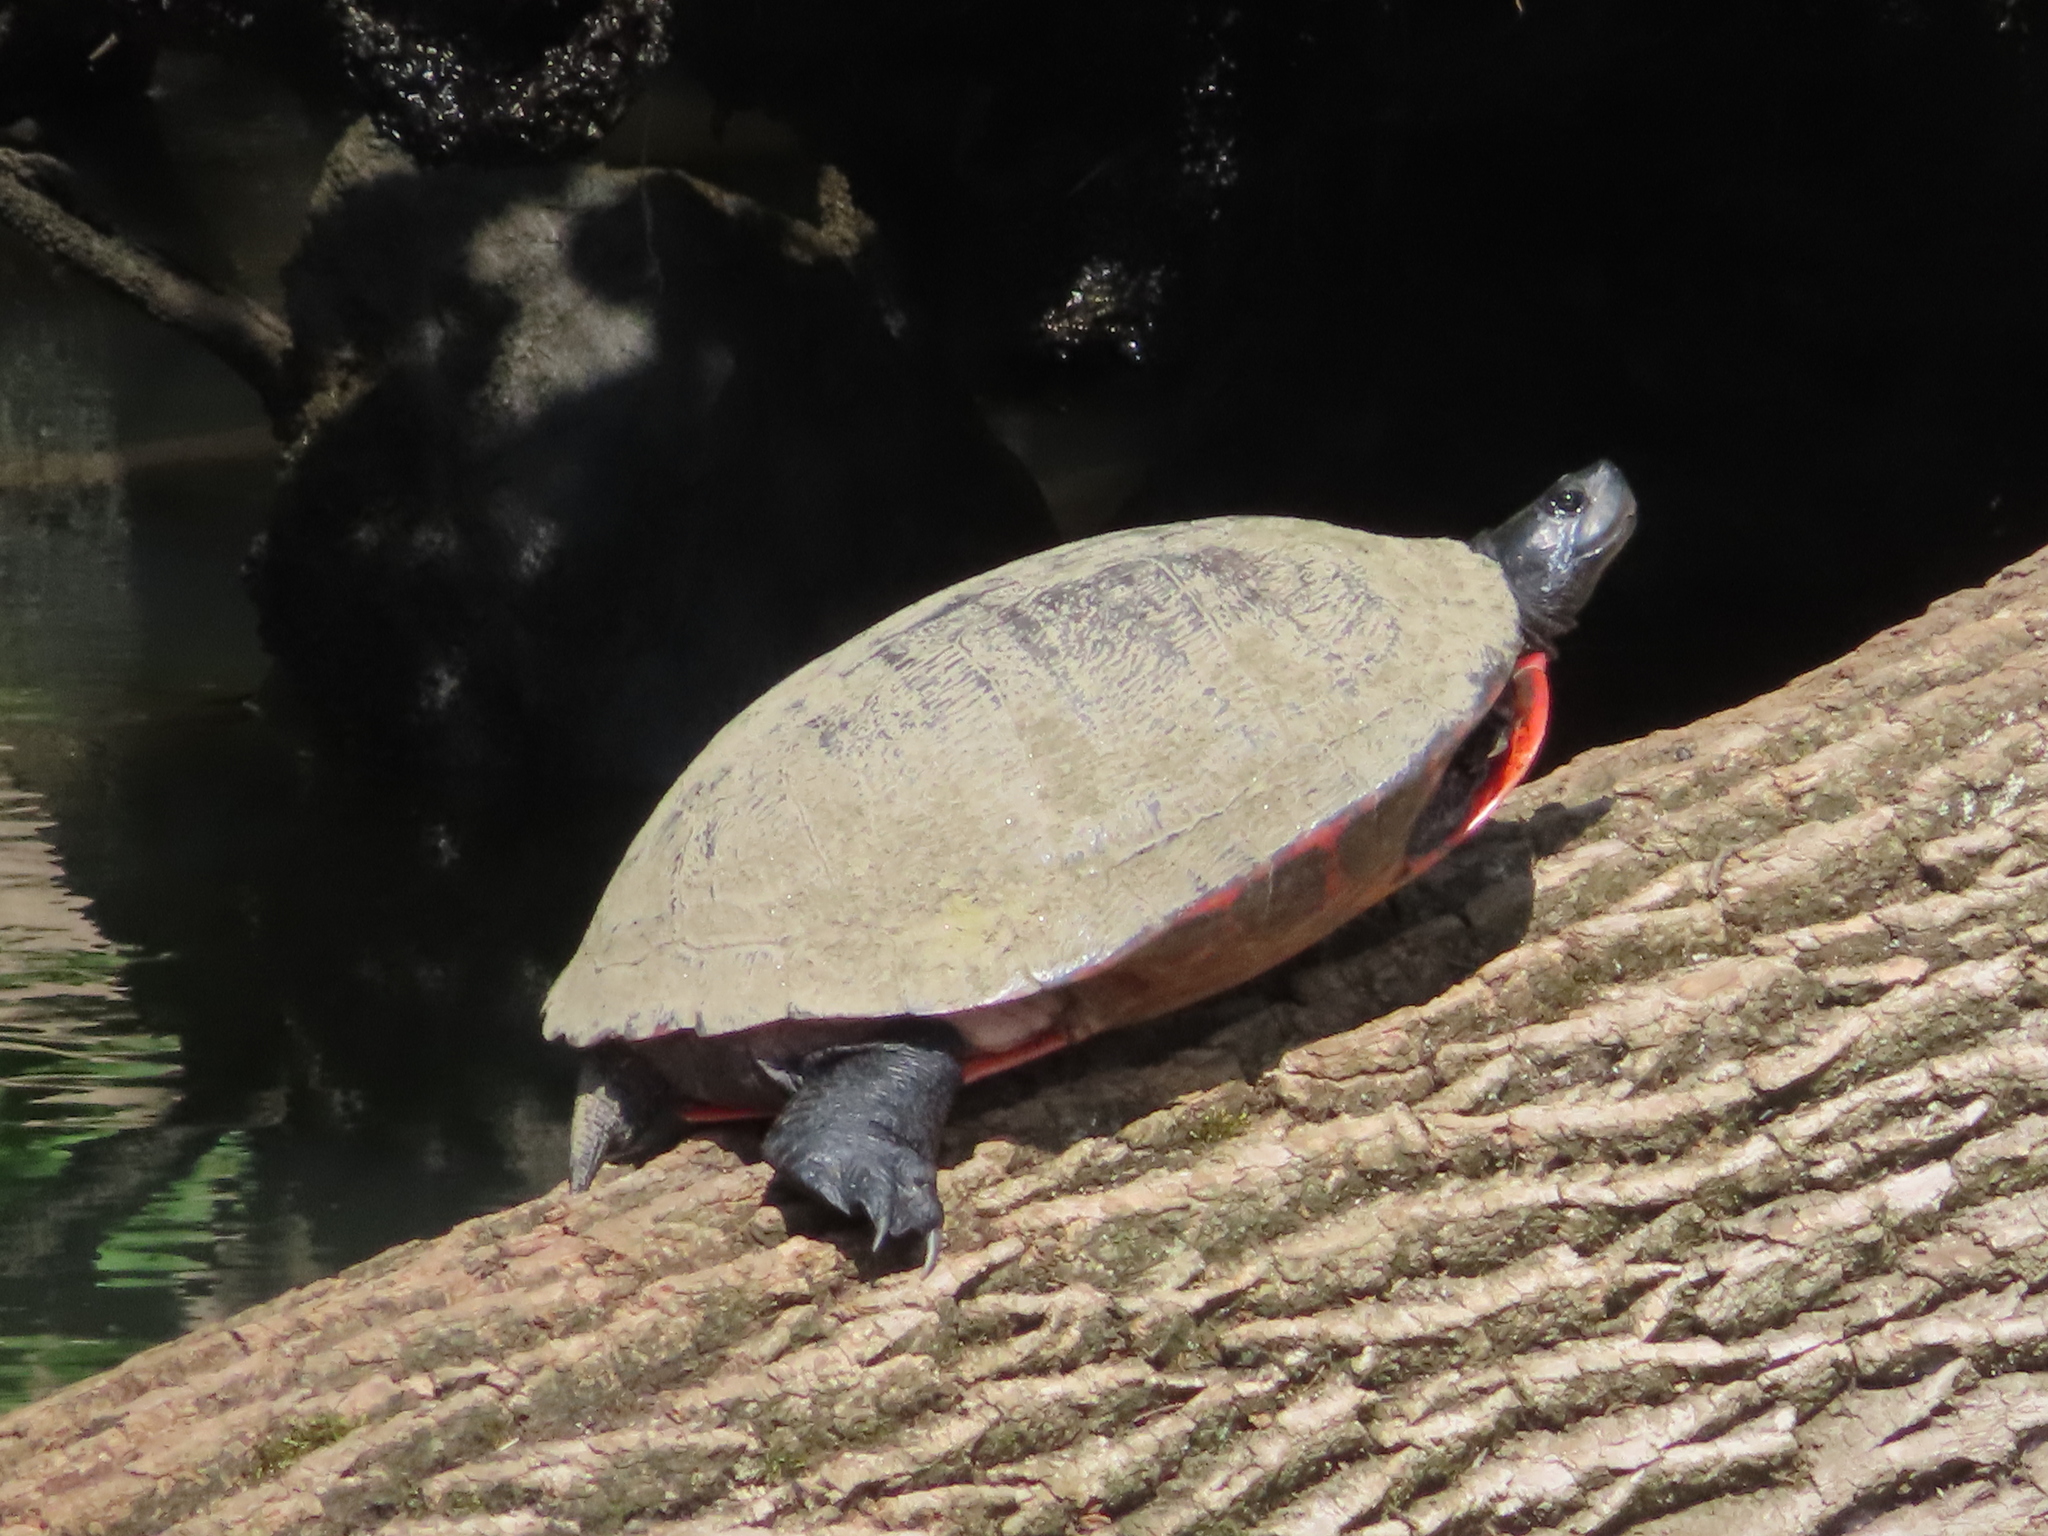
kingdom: Animalia
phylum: Chordata
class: Testudines
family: Emydidae
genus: Pseudemys
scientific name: Pseudemys rubriventris
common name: American red-bellied turtle
